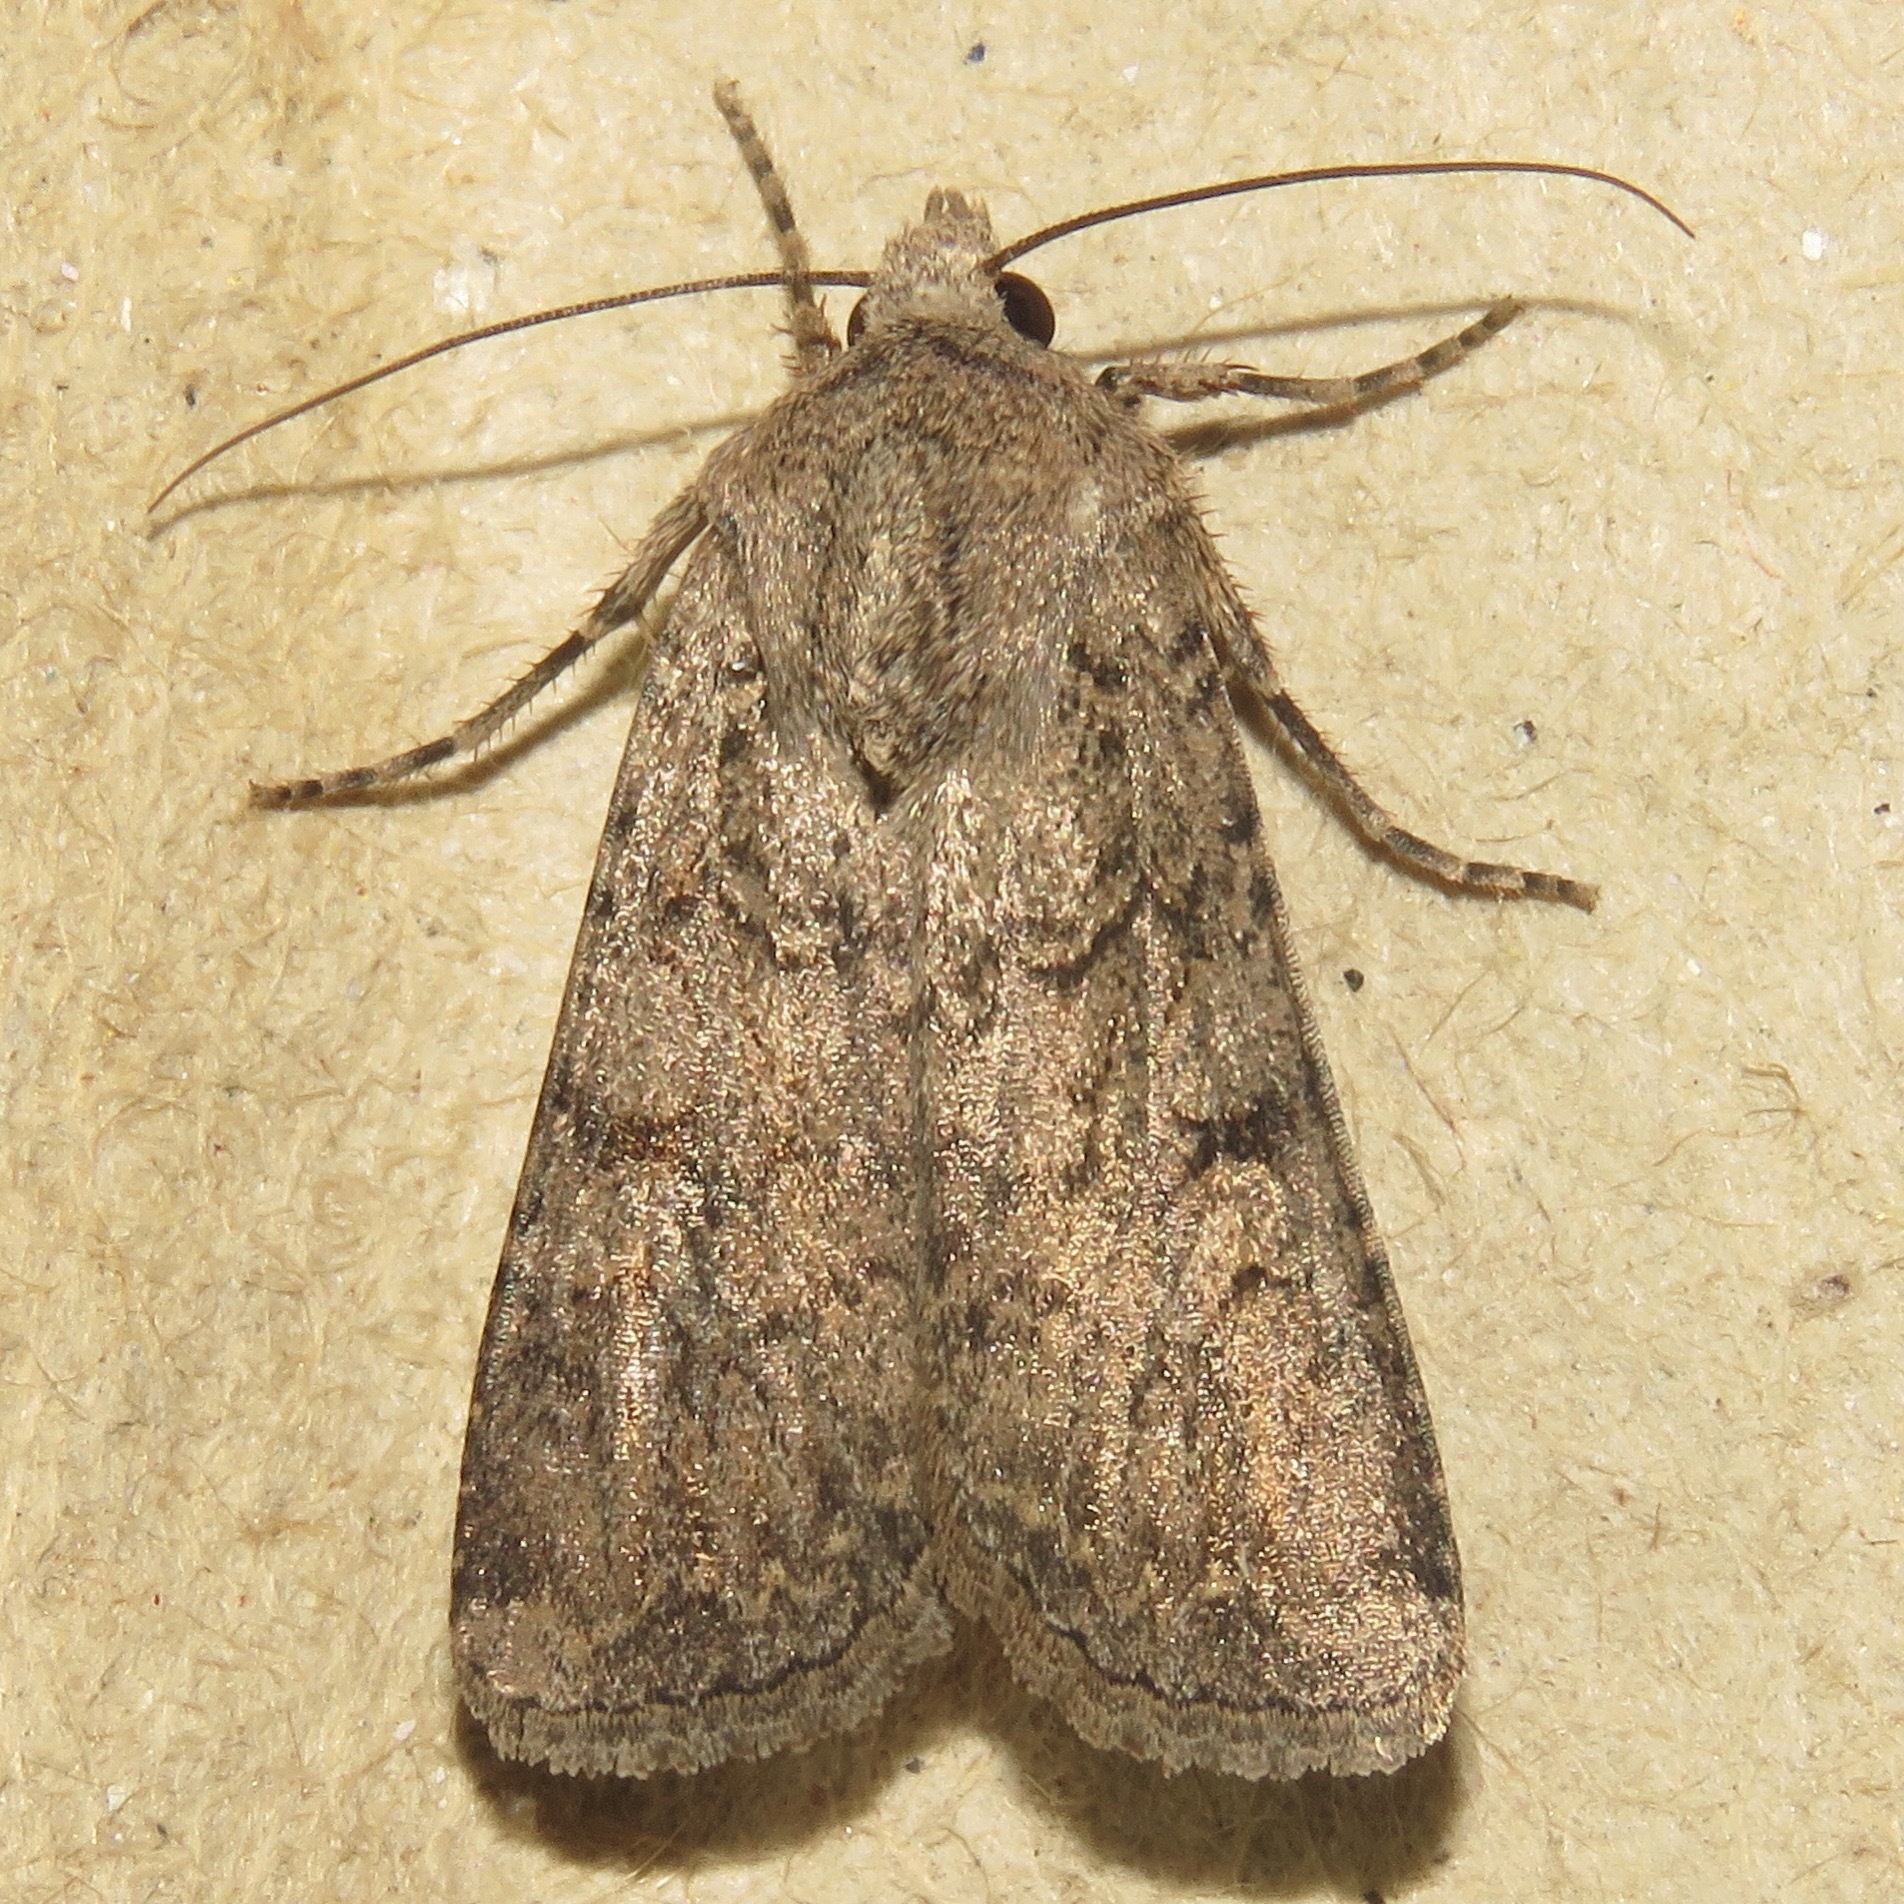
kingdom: Animalia
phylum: Arthropoda
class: Insecta
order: Lepidoptera
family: Noctuidae
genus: Euxoa
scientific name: Euxoa messoria
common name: Darksided cutworm
